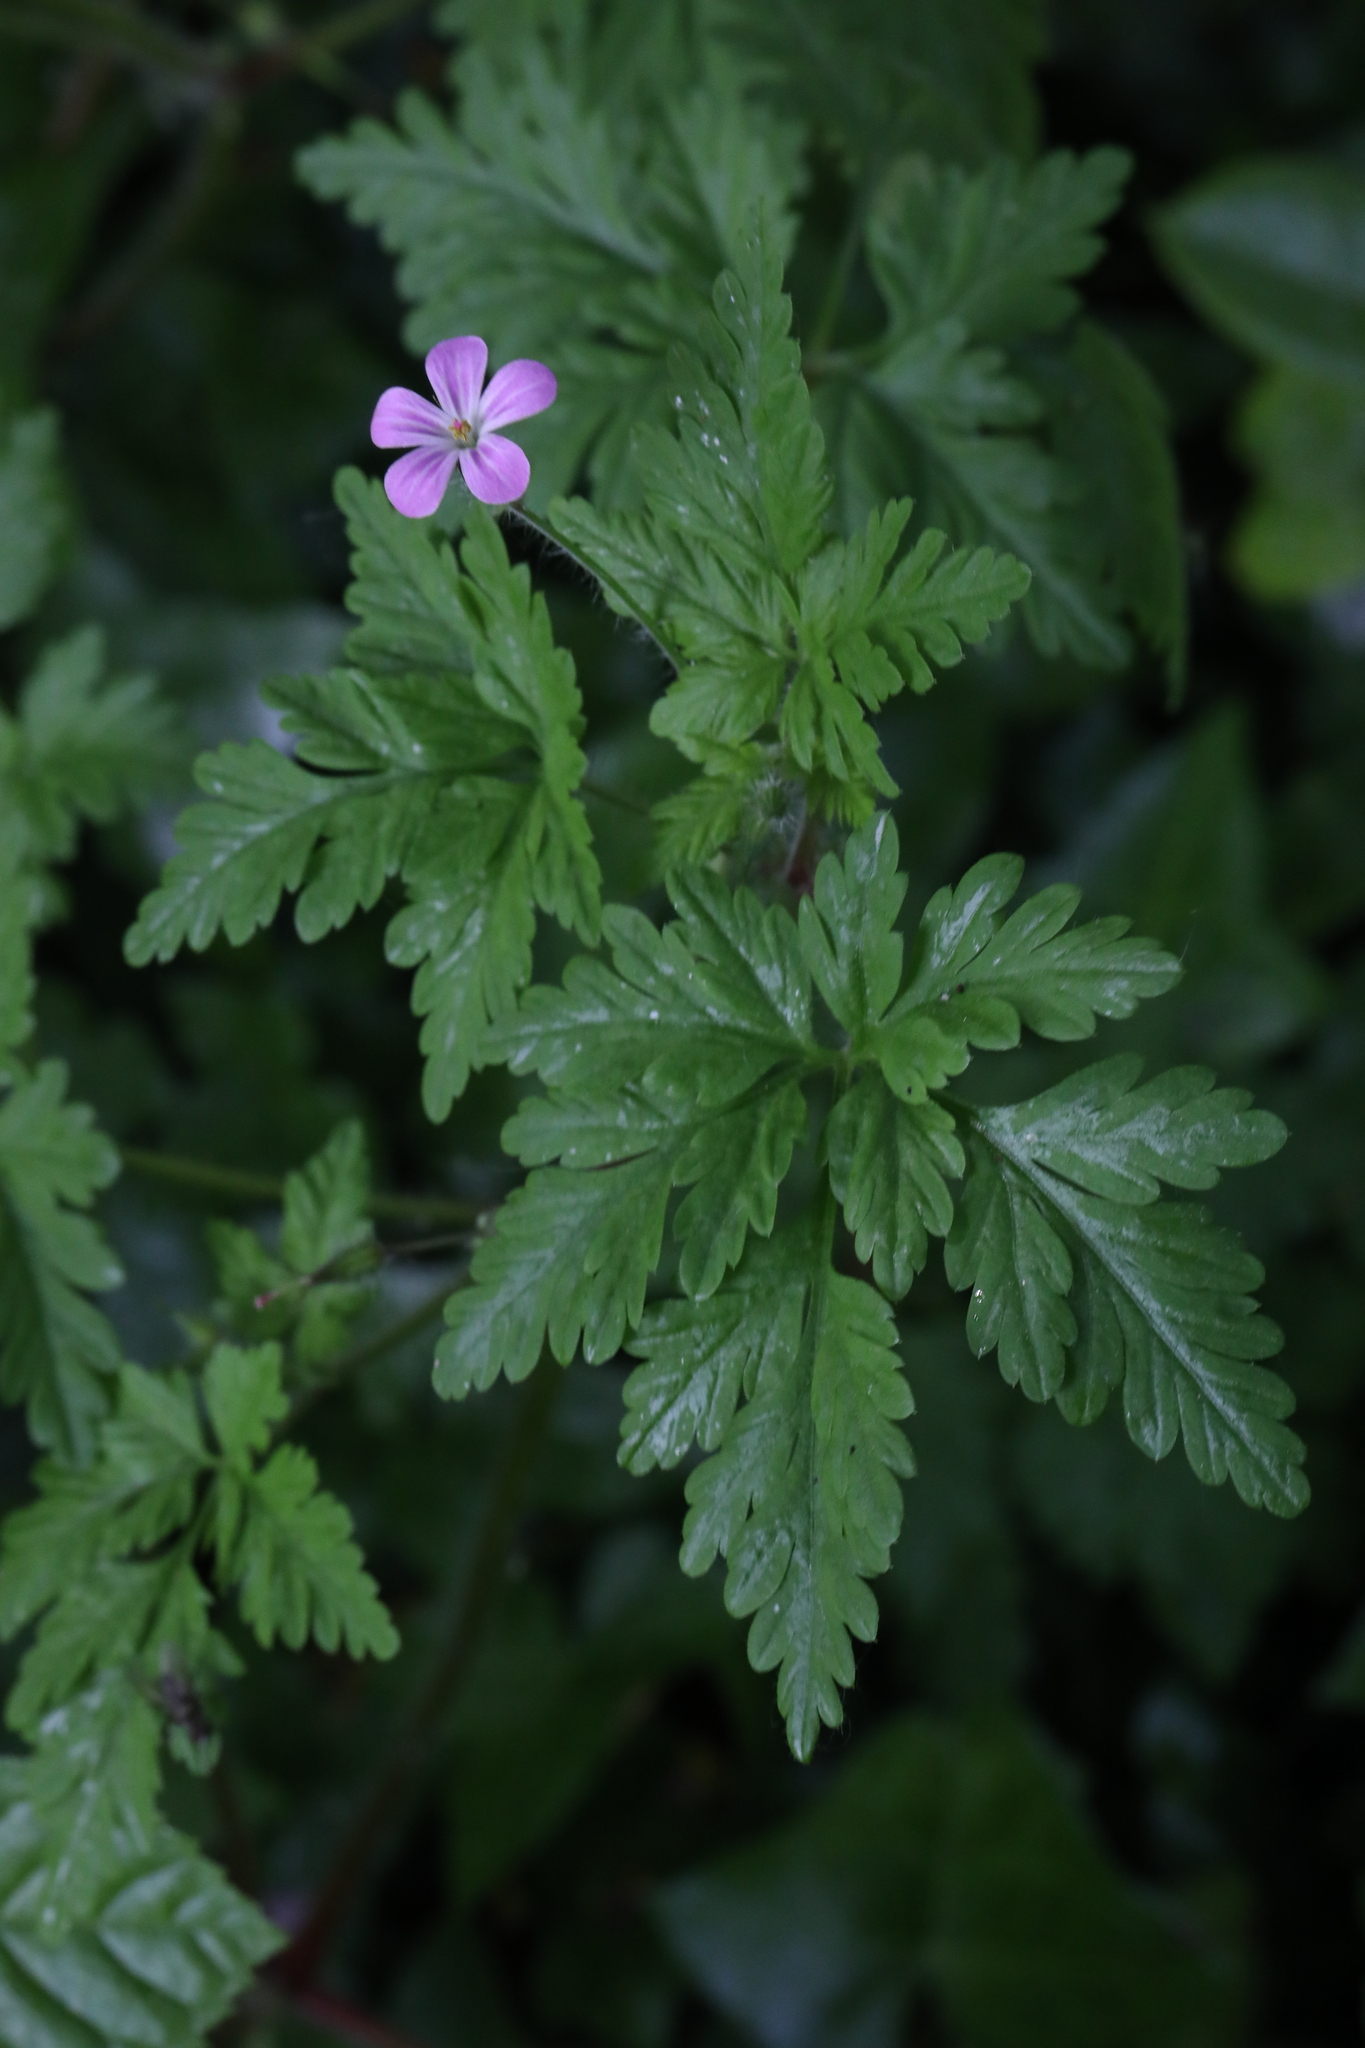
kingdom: Plantae
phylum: Tracheophyta
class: Magnoliopsida
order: Geraniales
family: Geraniaceae
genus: Geranium
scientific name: Geranium robertianum
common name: Herb-robert
